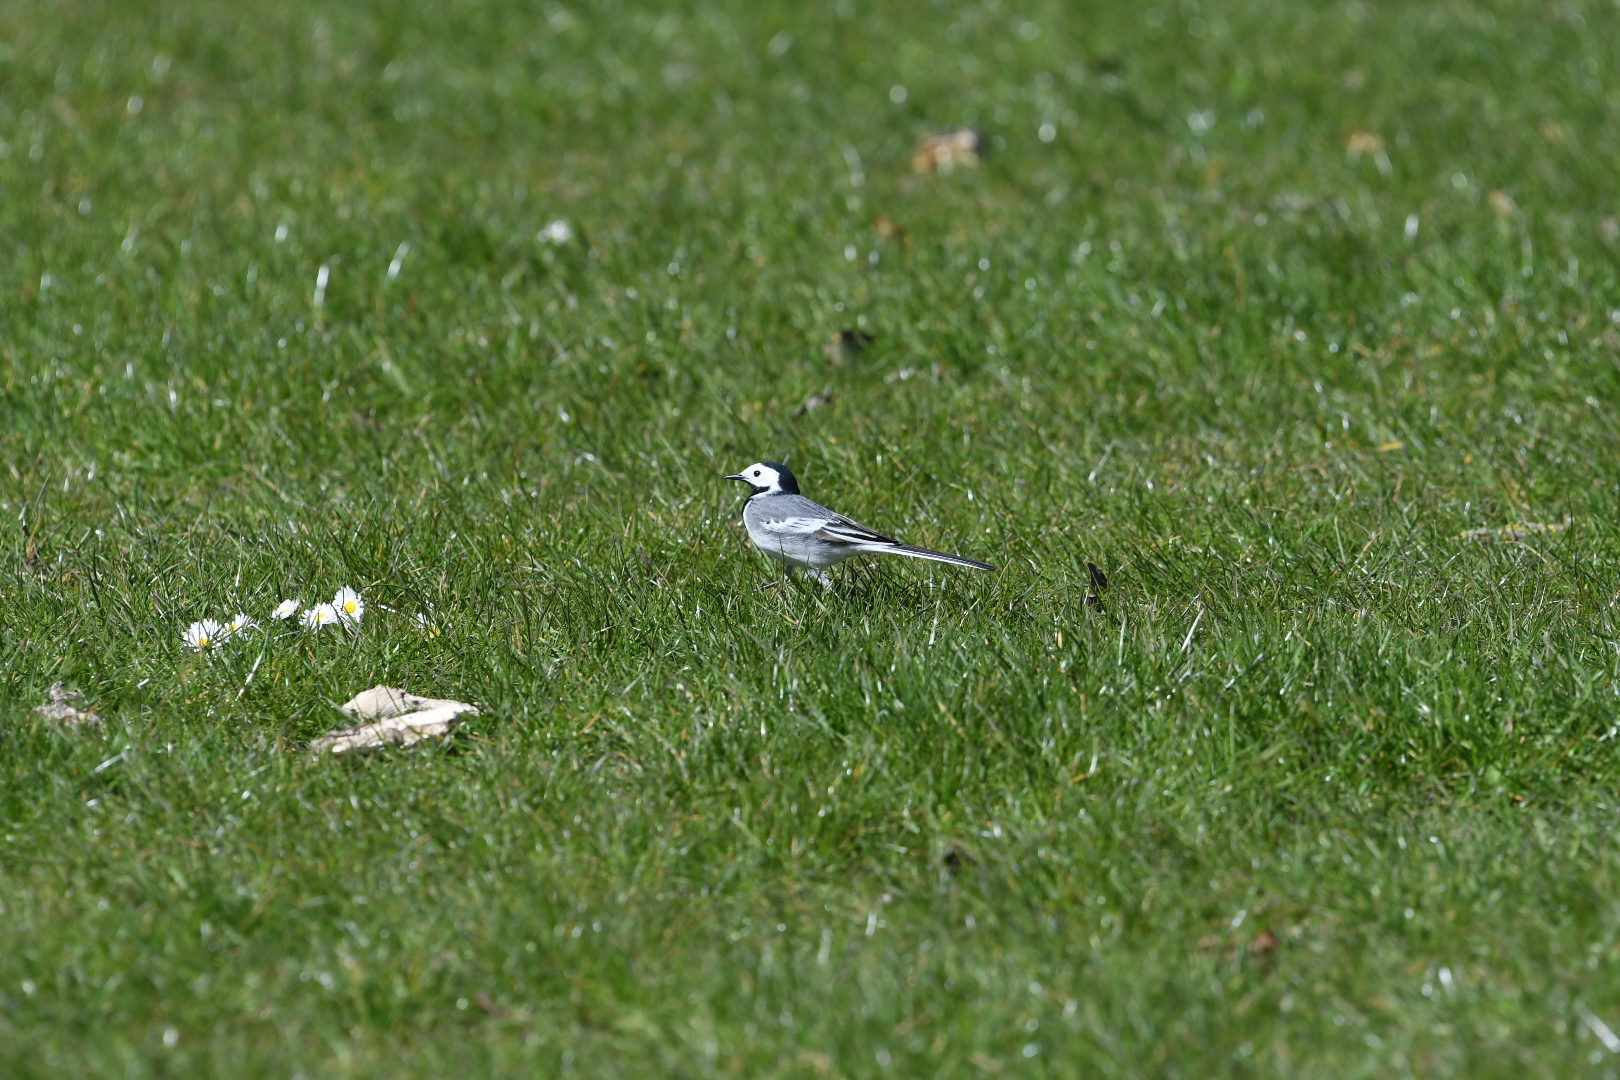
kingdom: Animalia
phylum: Chordata
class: Aves
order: Passeriformes
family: Motacillidae
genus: Motacilla
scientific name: Motacilla alba
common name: White wagtail
